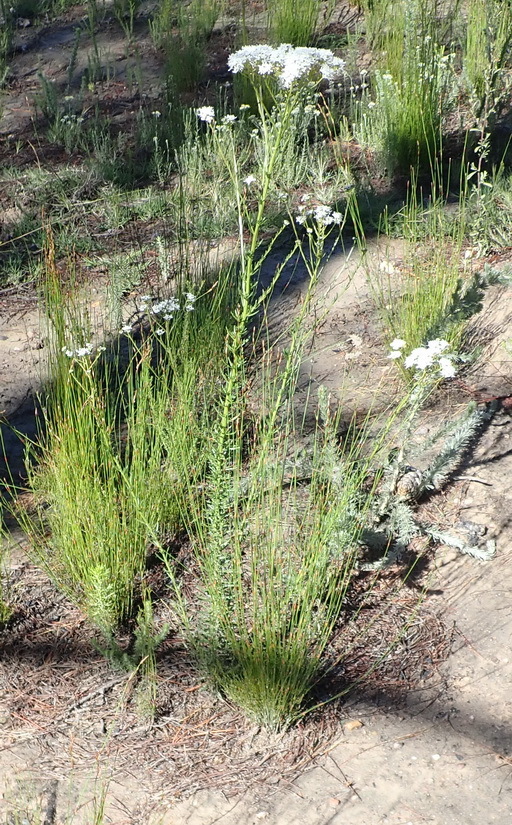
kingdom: Plantae
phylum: Tracheophyta
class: Magnoliopsida
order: Lamiales
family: Scrophulariaceae
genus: Pseudoselago
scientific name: Pseudoselago outeniquensis
